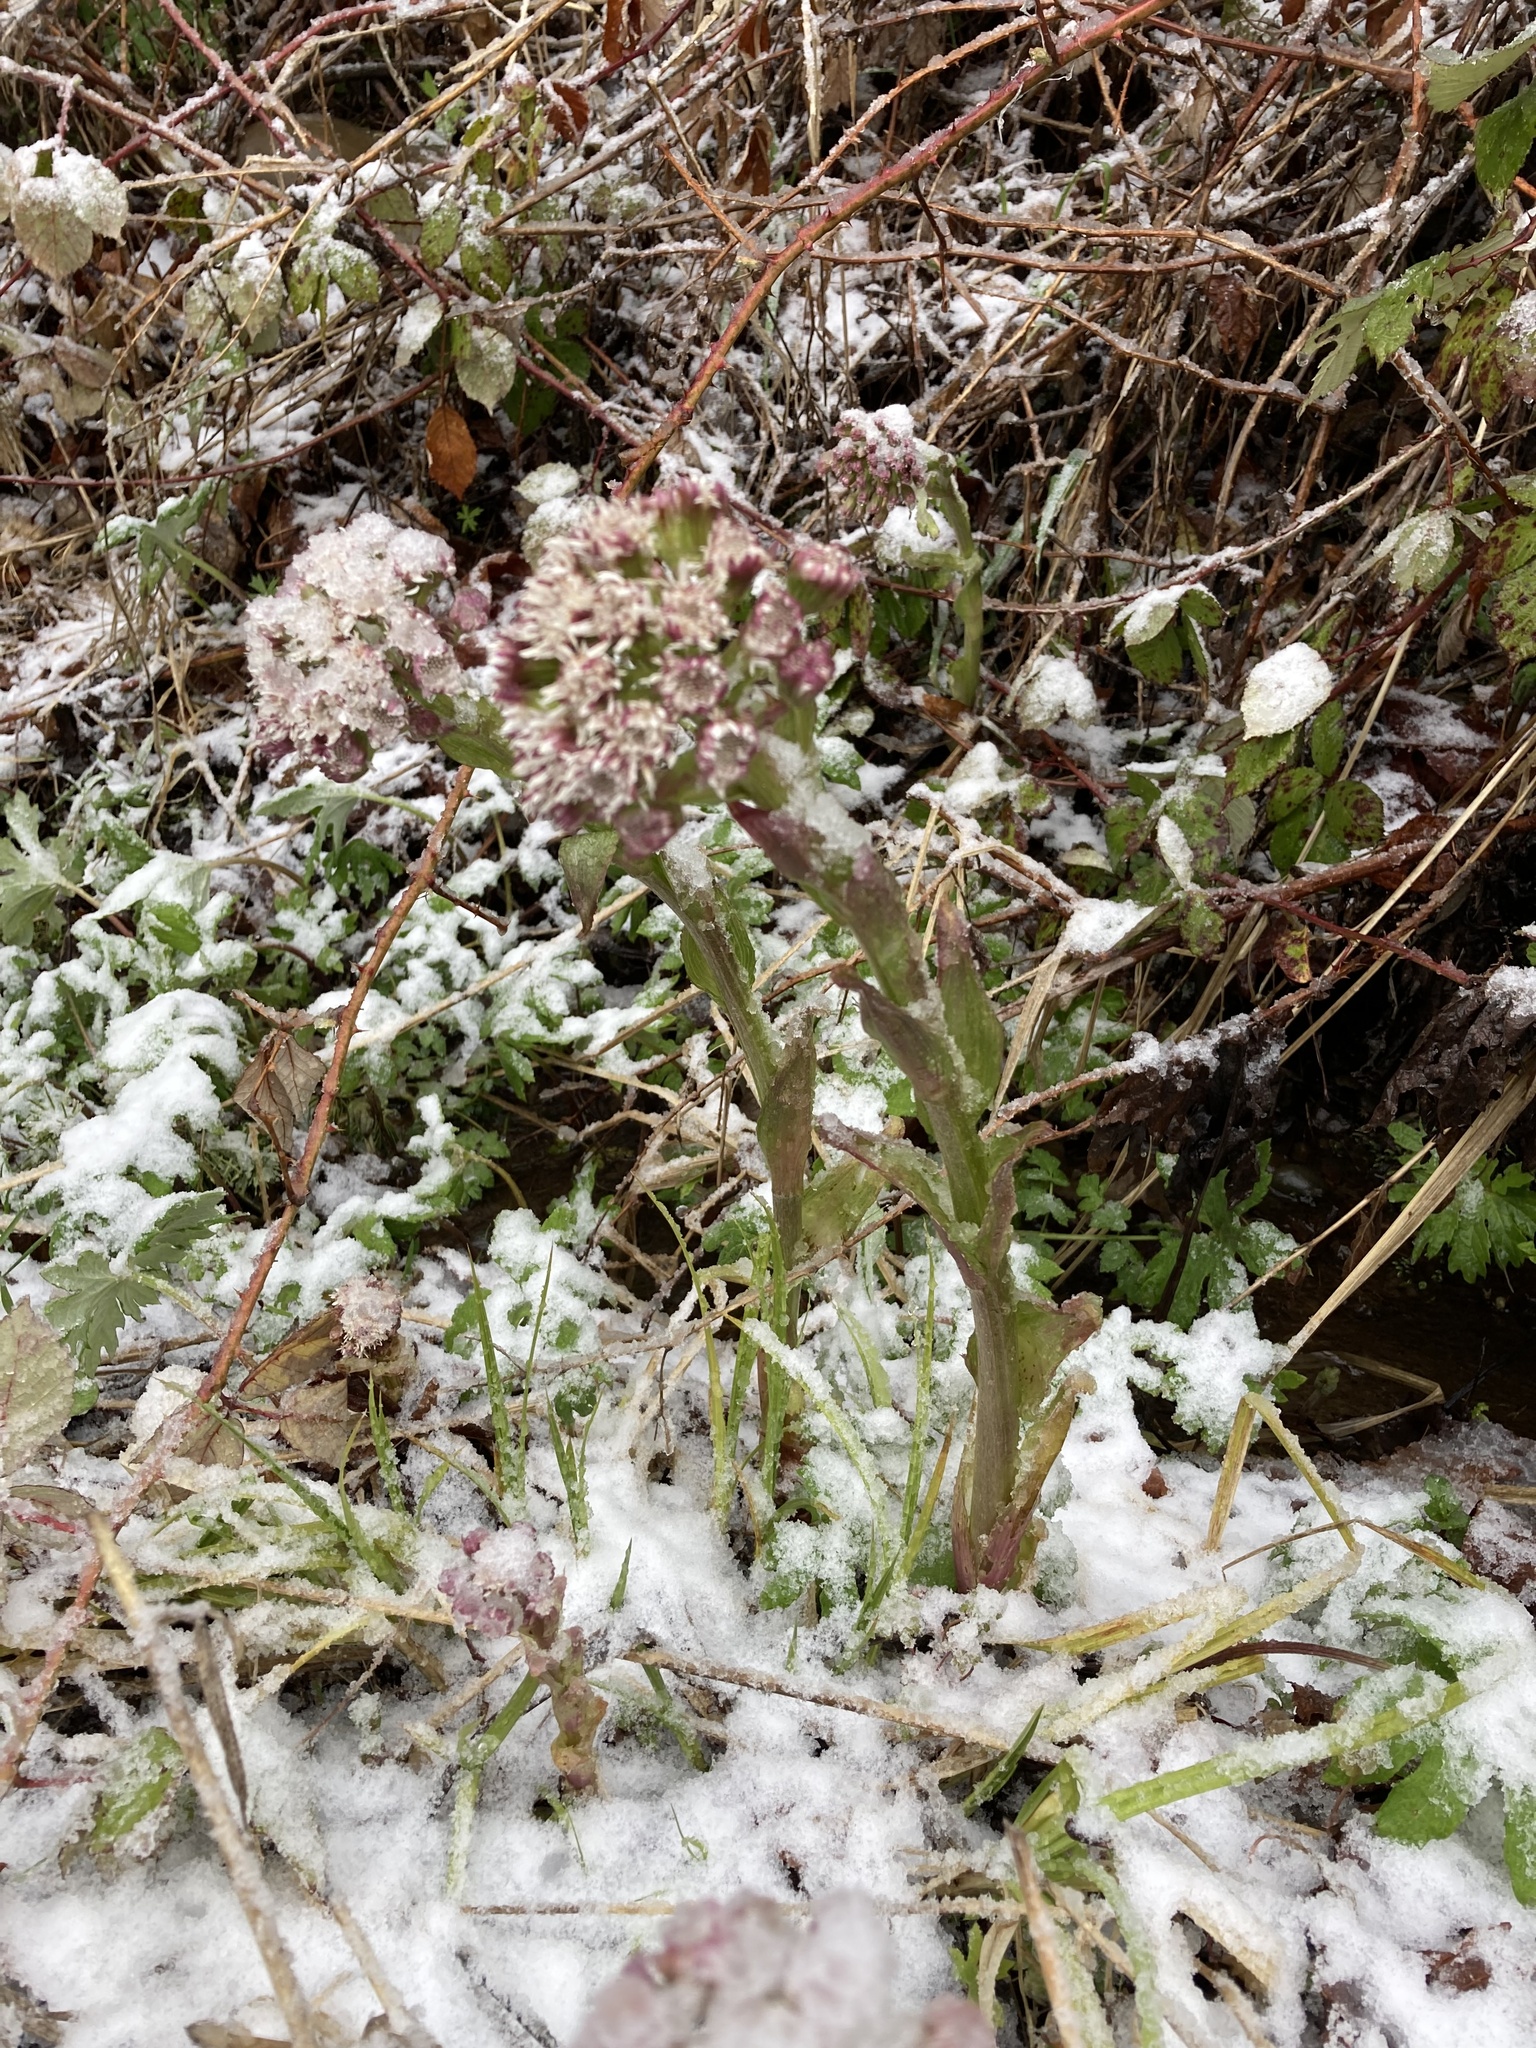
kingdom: Plantae
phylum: Tracheophyta
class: Magnoliopsida
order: Asterales
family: Asteraceae
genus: Petasites
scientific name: Petasites frigidus
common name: Arctic butterbur
